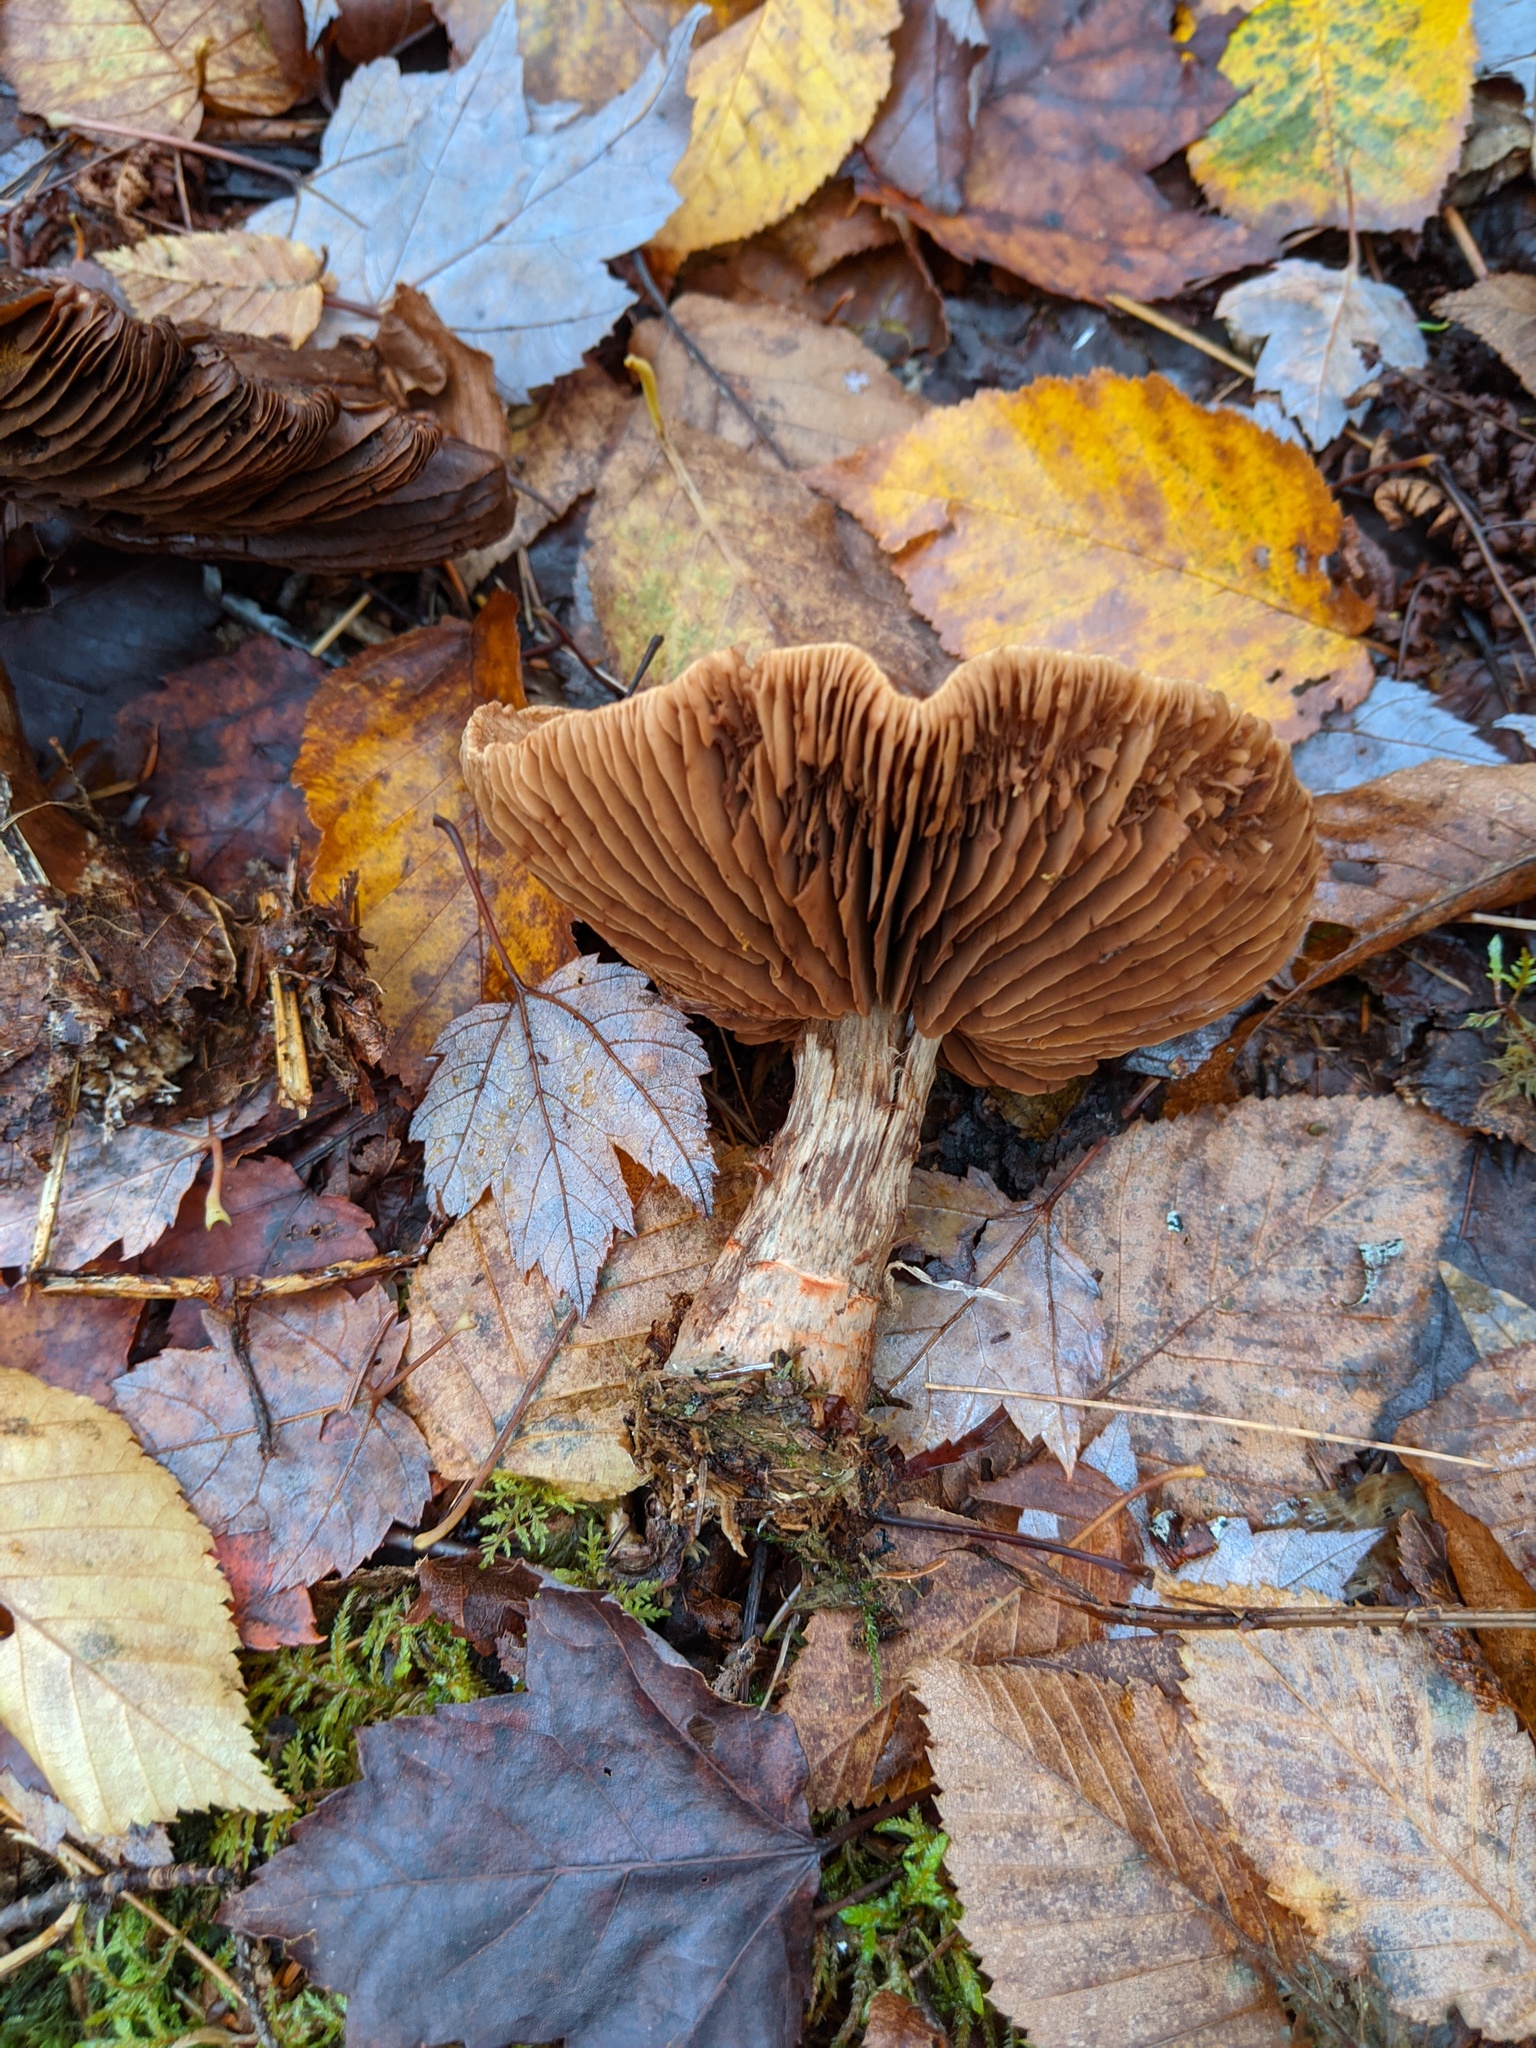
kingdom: Fungi
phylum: Basidiomycota
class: Agaricomycetes
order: Agaricales
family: Cortinariaceae
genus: Cortinarius
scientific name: Cortinarius armillatus
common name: Red banded webcap
